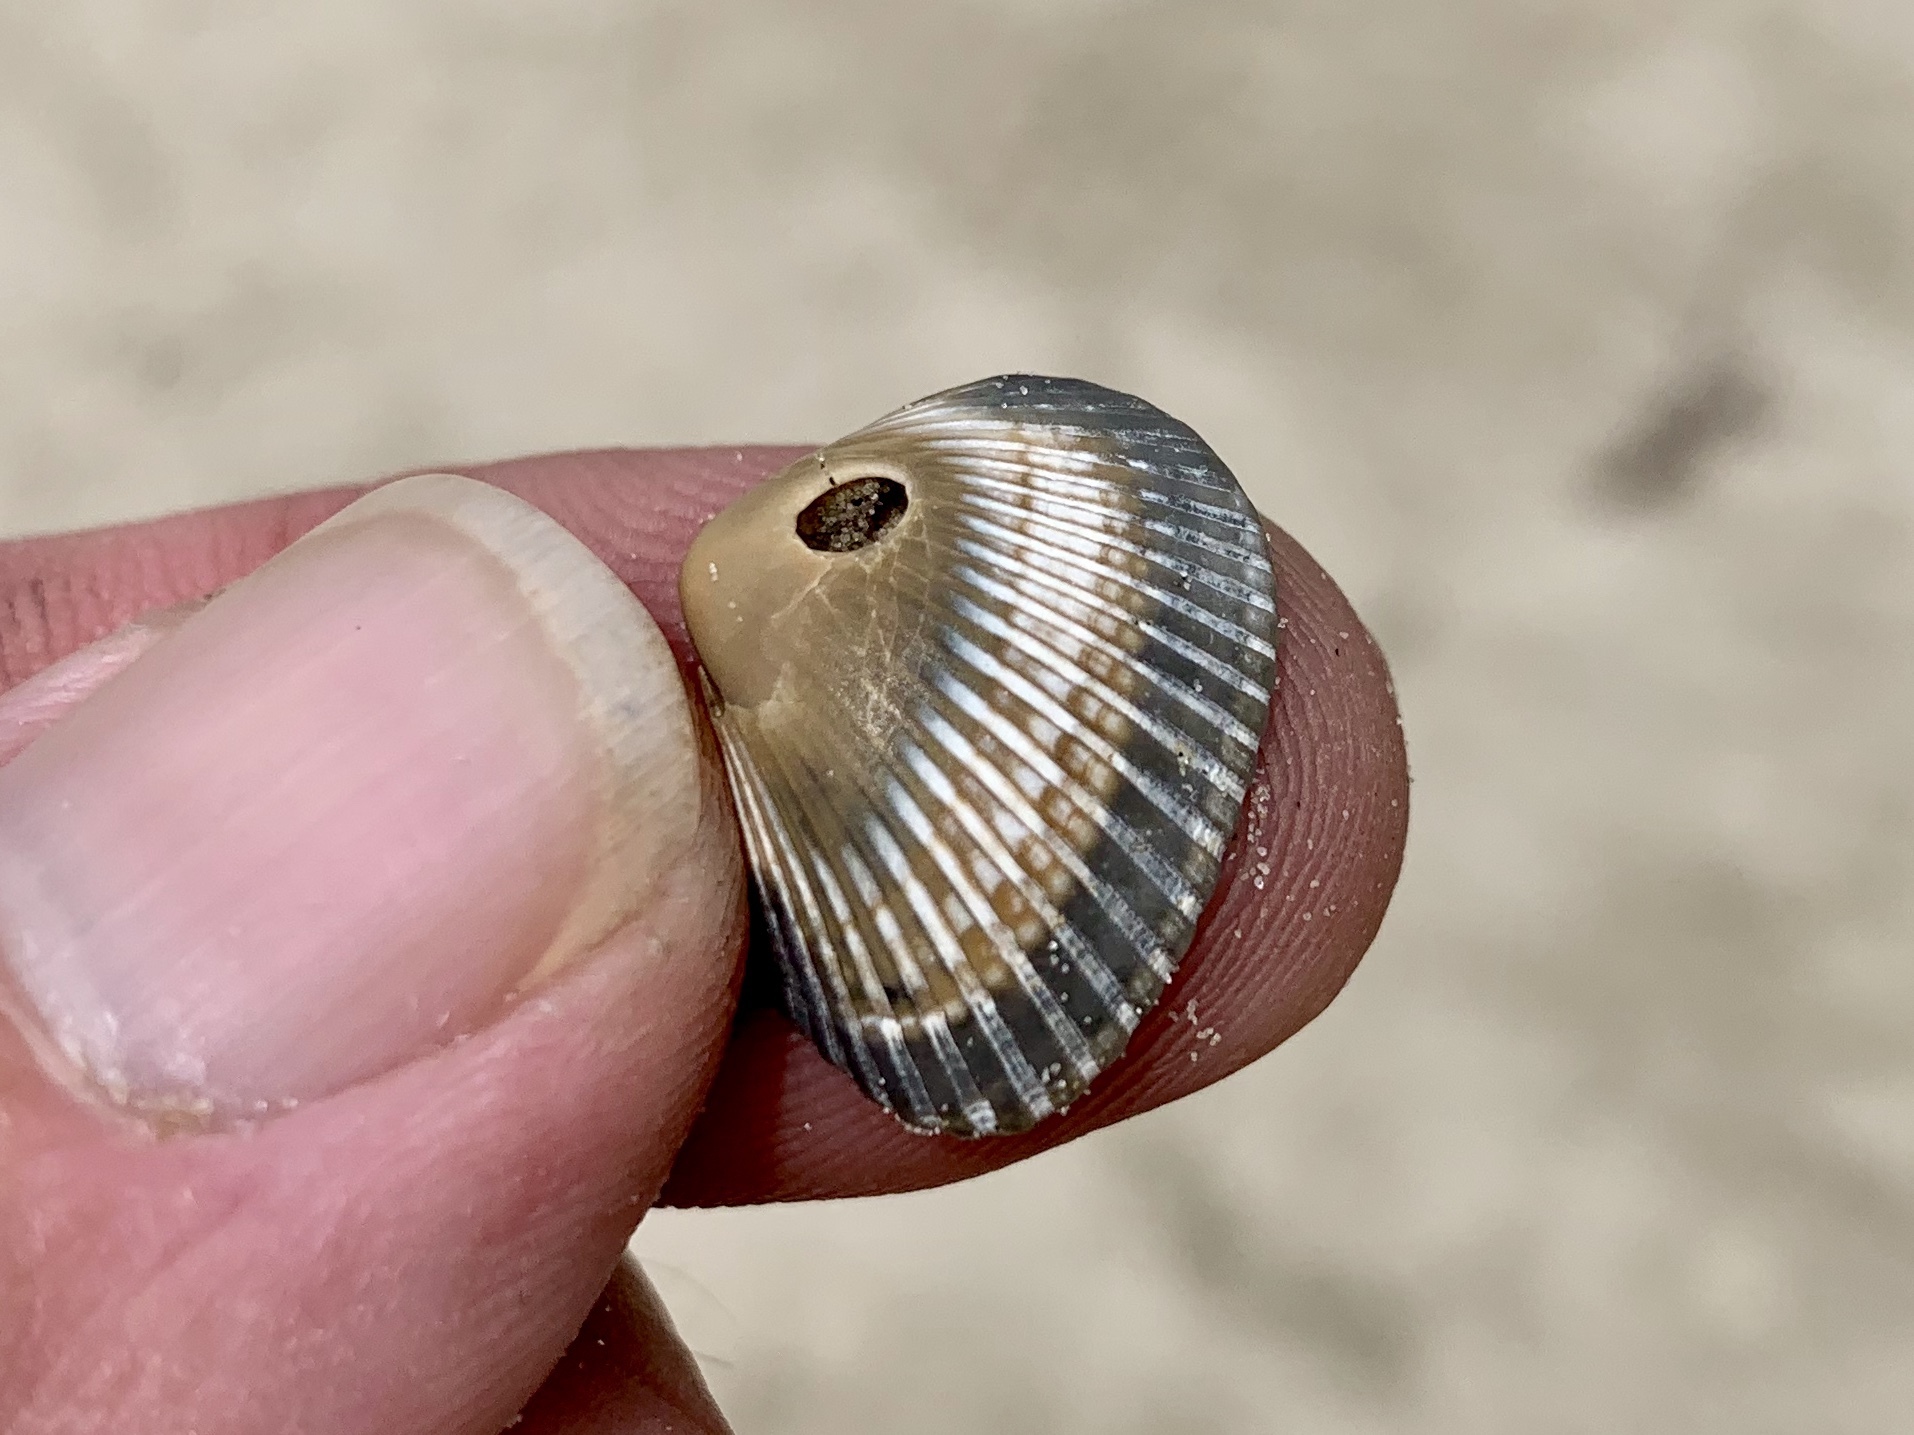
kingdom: Animalia
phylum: Mollusca
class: Bivalvia
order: Arcida
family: Noetiidae
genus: Noetia
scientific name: Noetia ponderosa
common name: Ponderous ark
